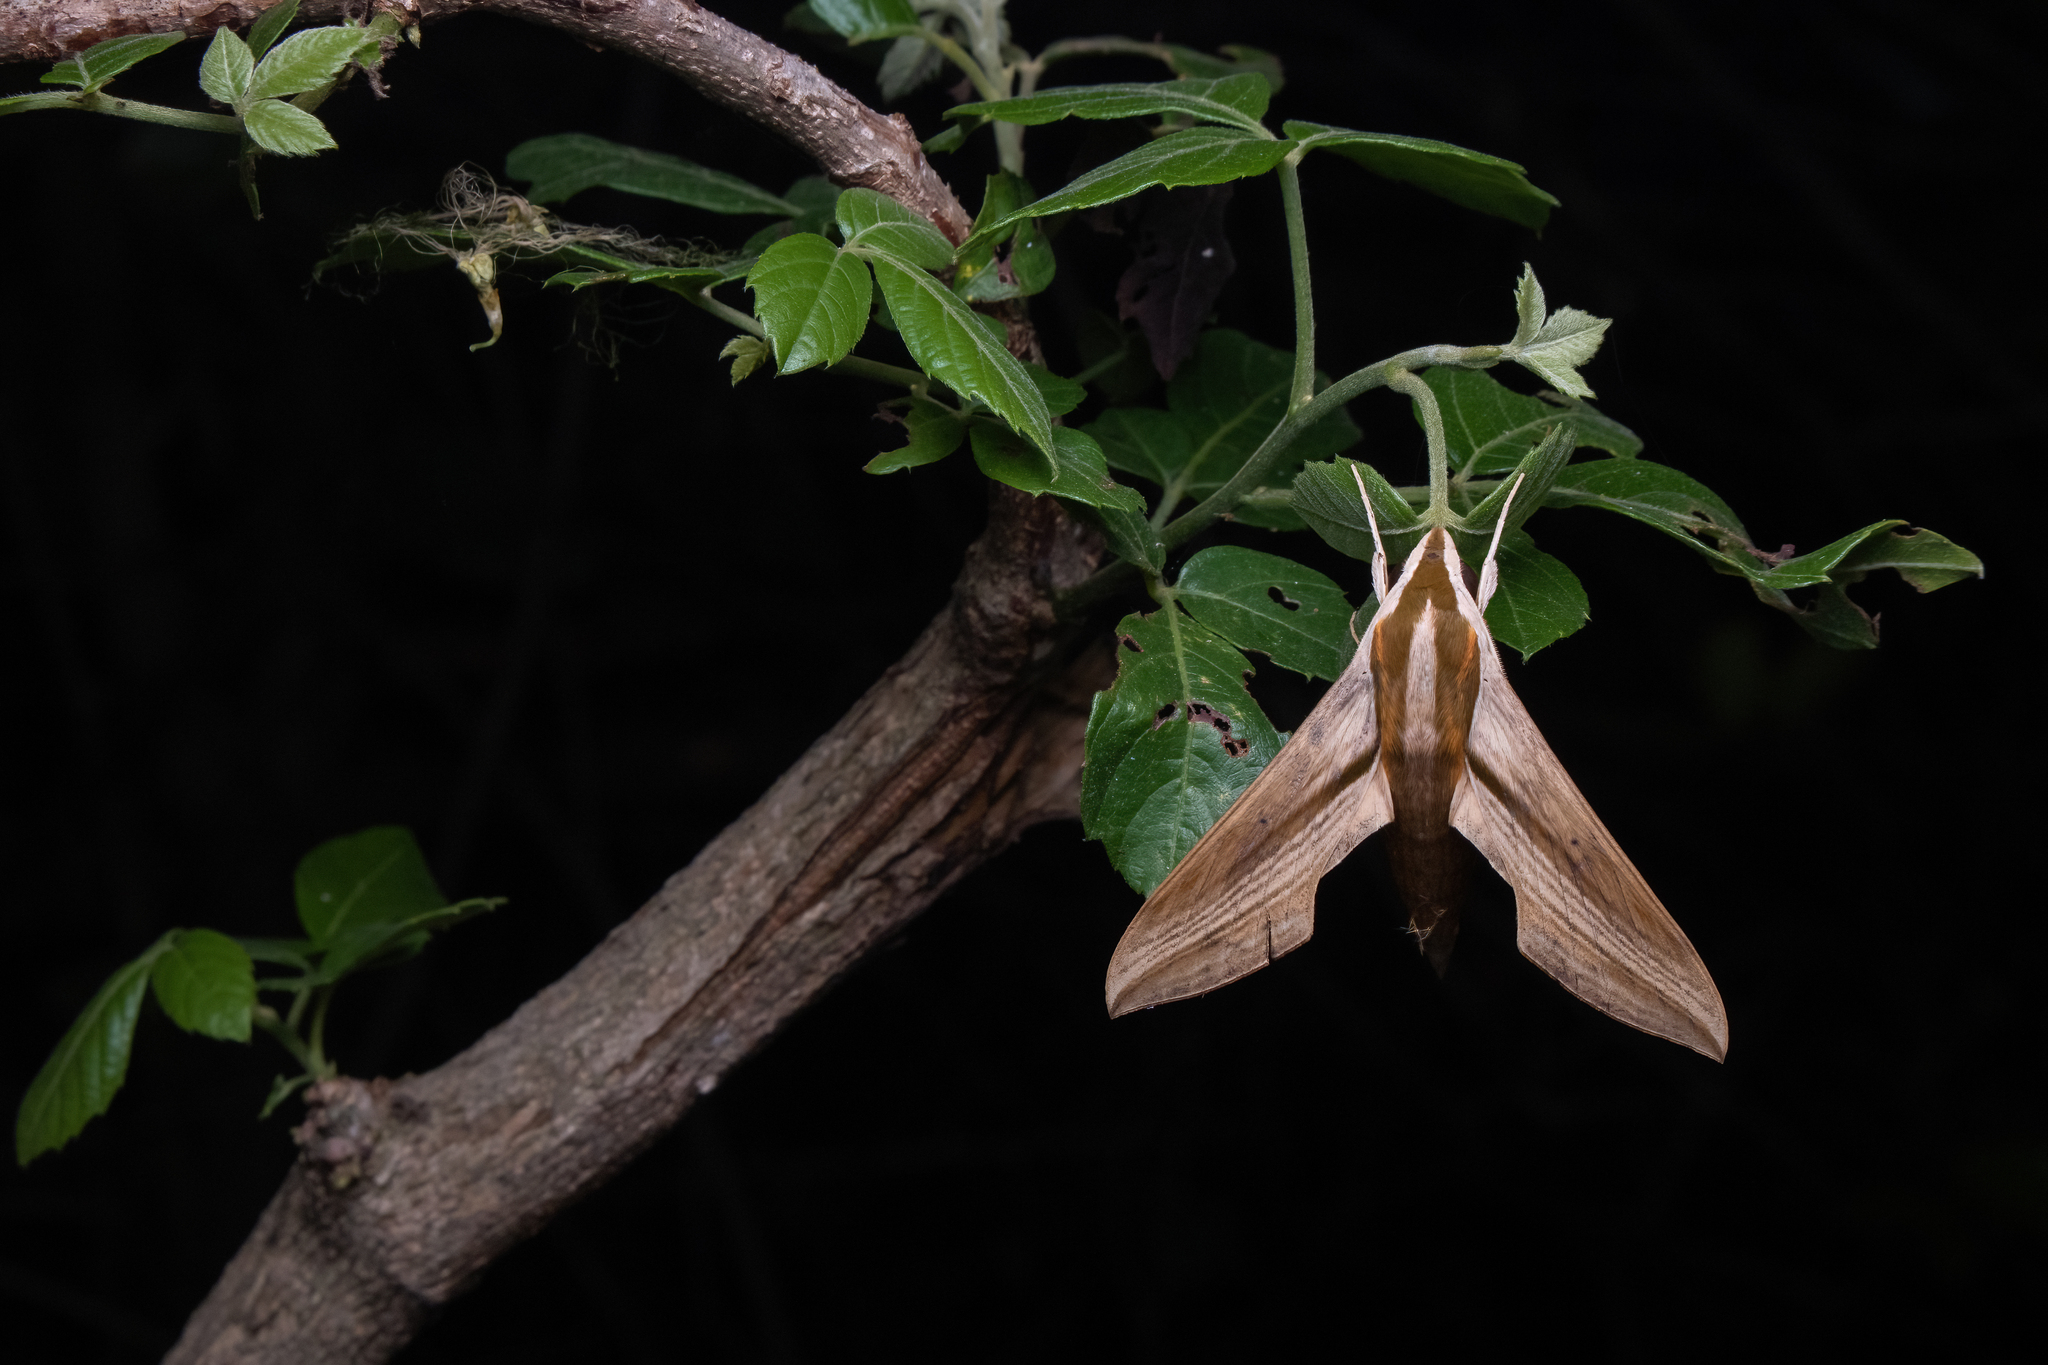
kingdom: Animalia
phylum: Arthropoda
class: Insecta
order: Lepidoptera
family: Sphingidae
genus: Hippotion
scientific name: Hippotion rosetta
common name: Vine hawk moth
